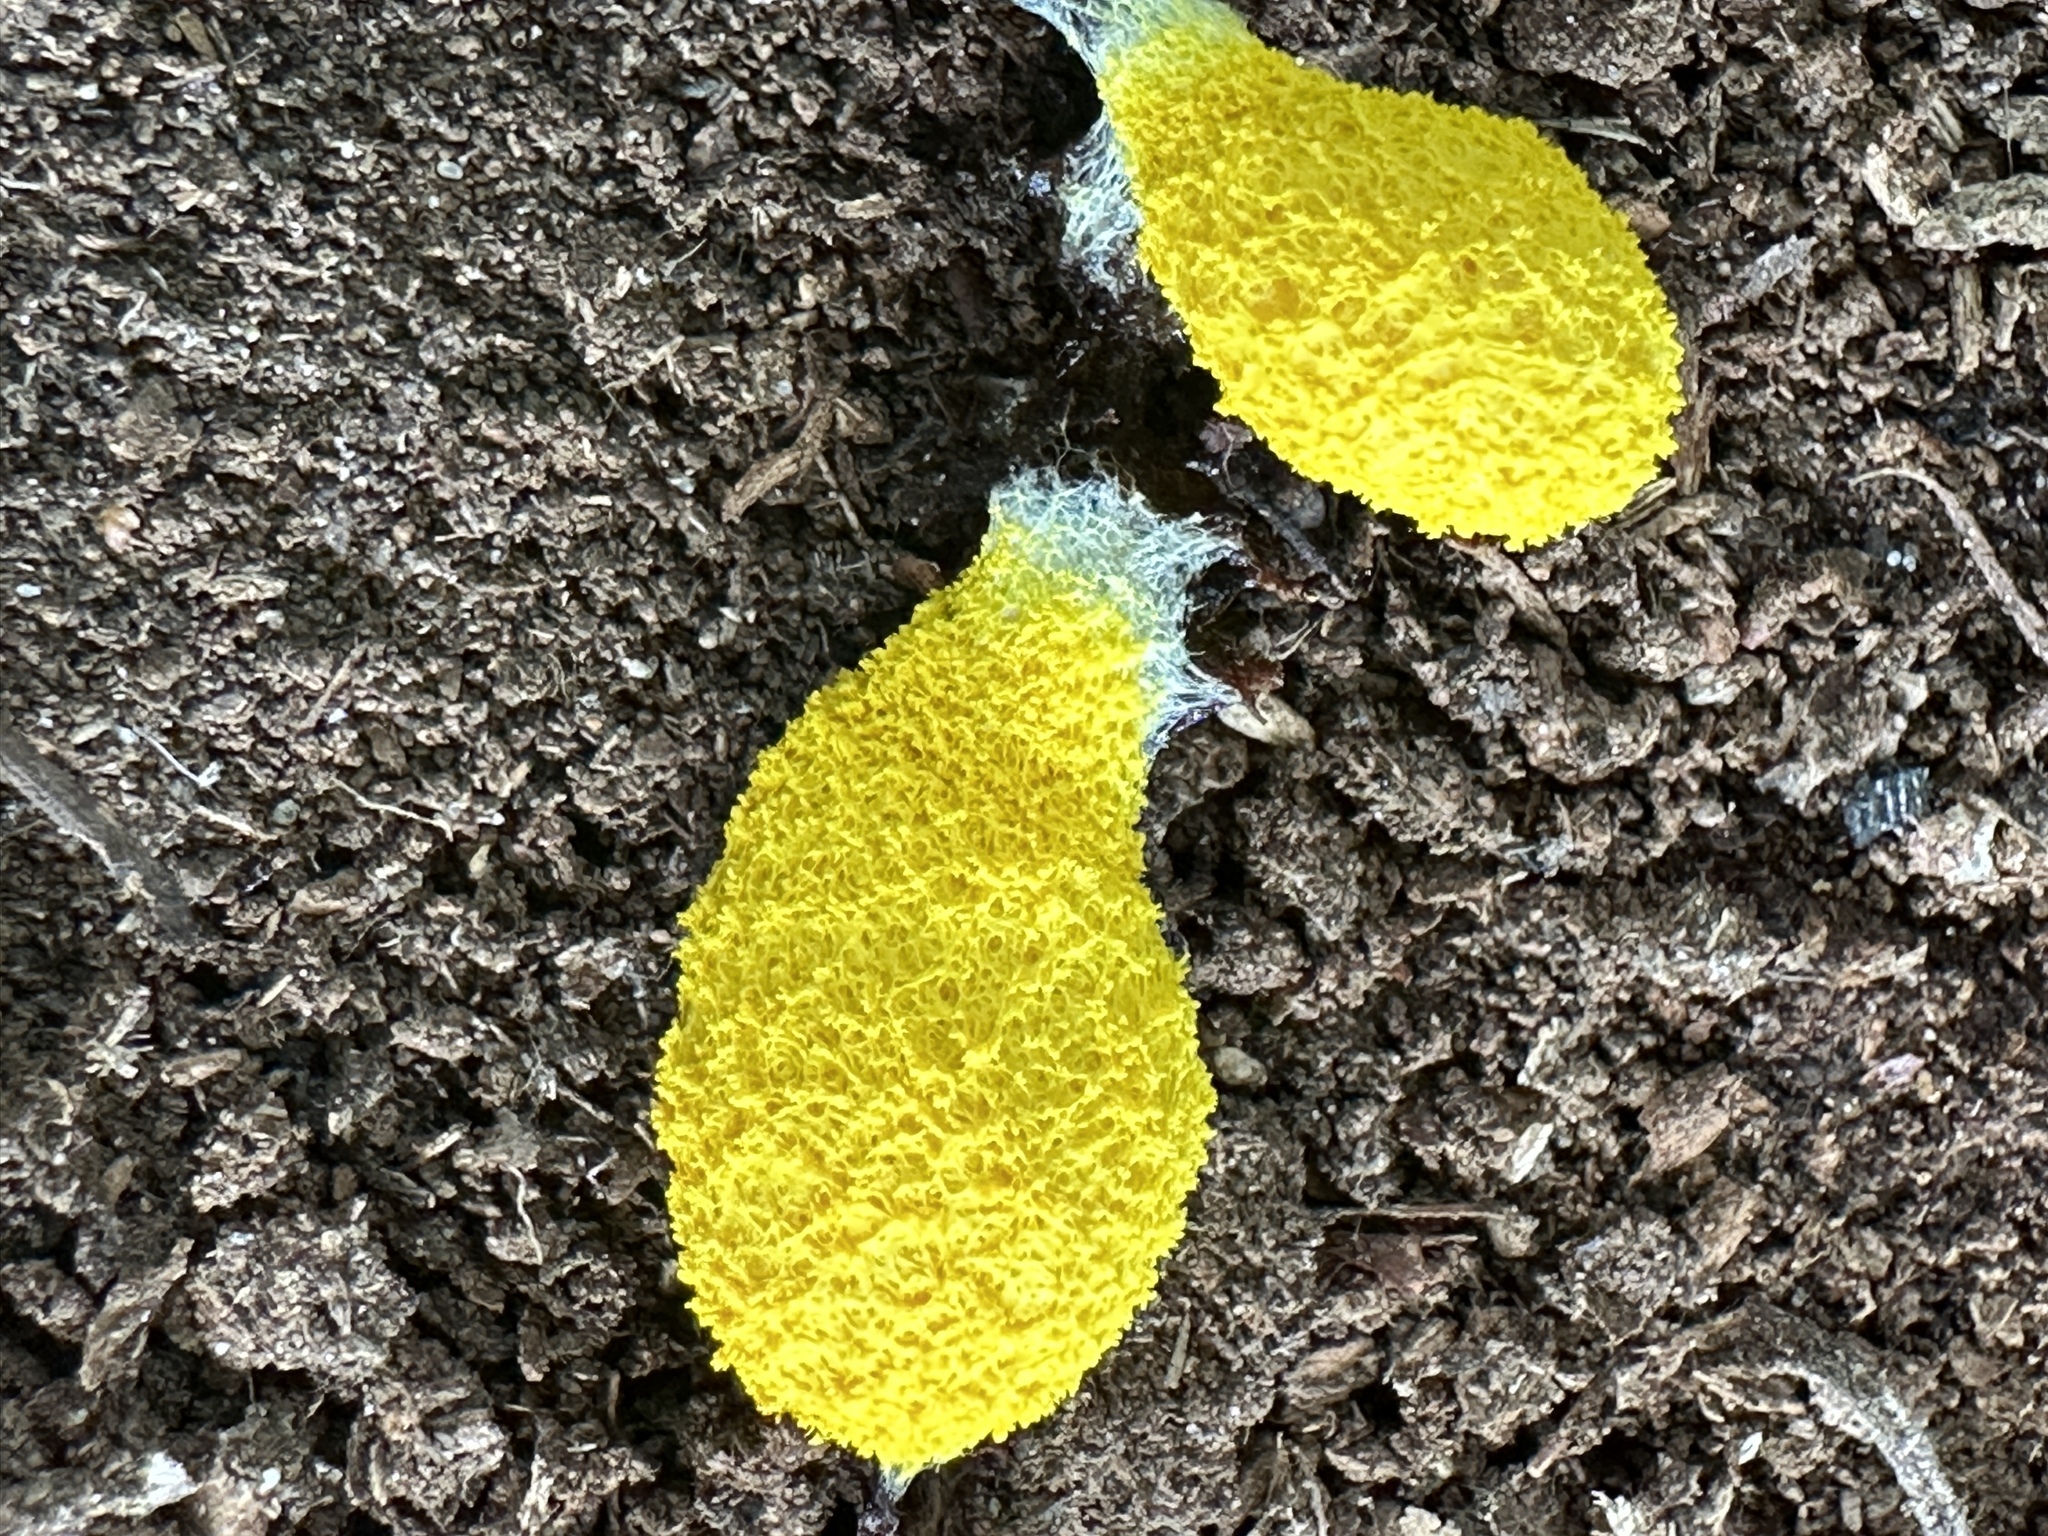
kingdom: Protozoa
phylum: Mycetozoa
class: Myxomycetes
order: Physarales
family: Physaraceae
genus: Fuligo
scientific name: Fuligo septica
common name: Dog vomit slime mold
